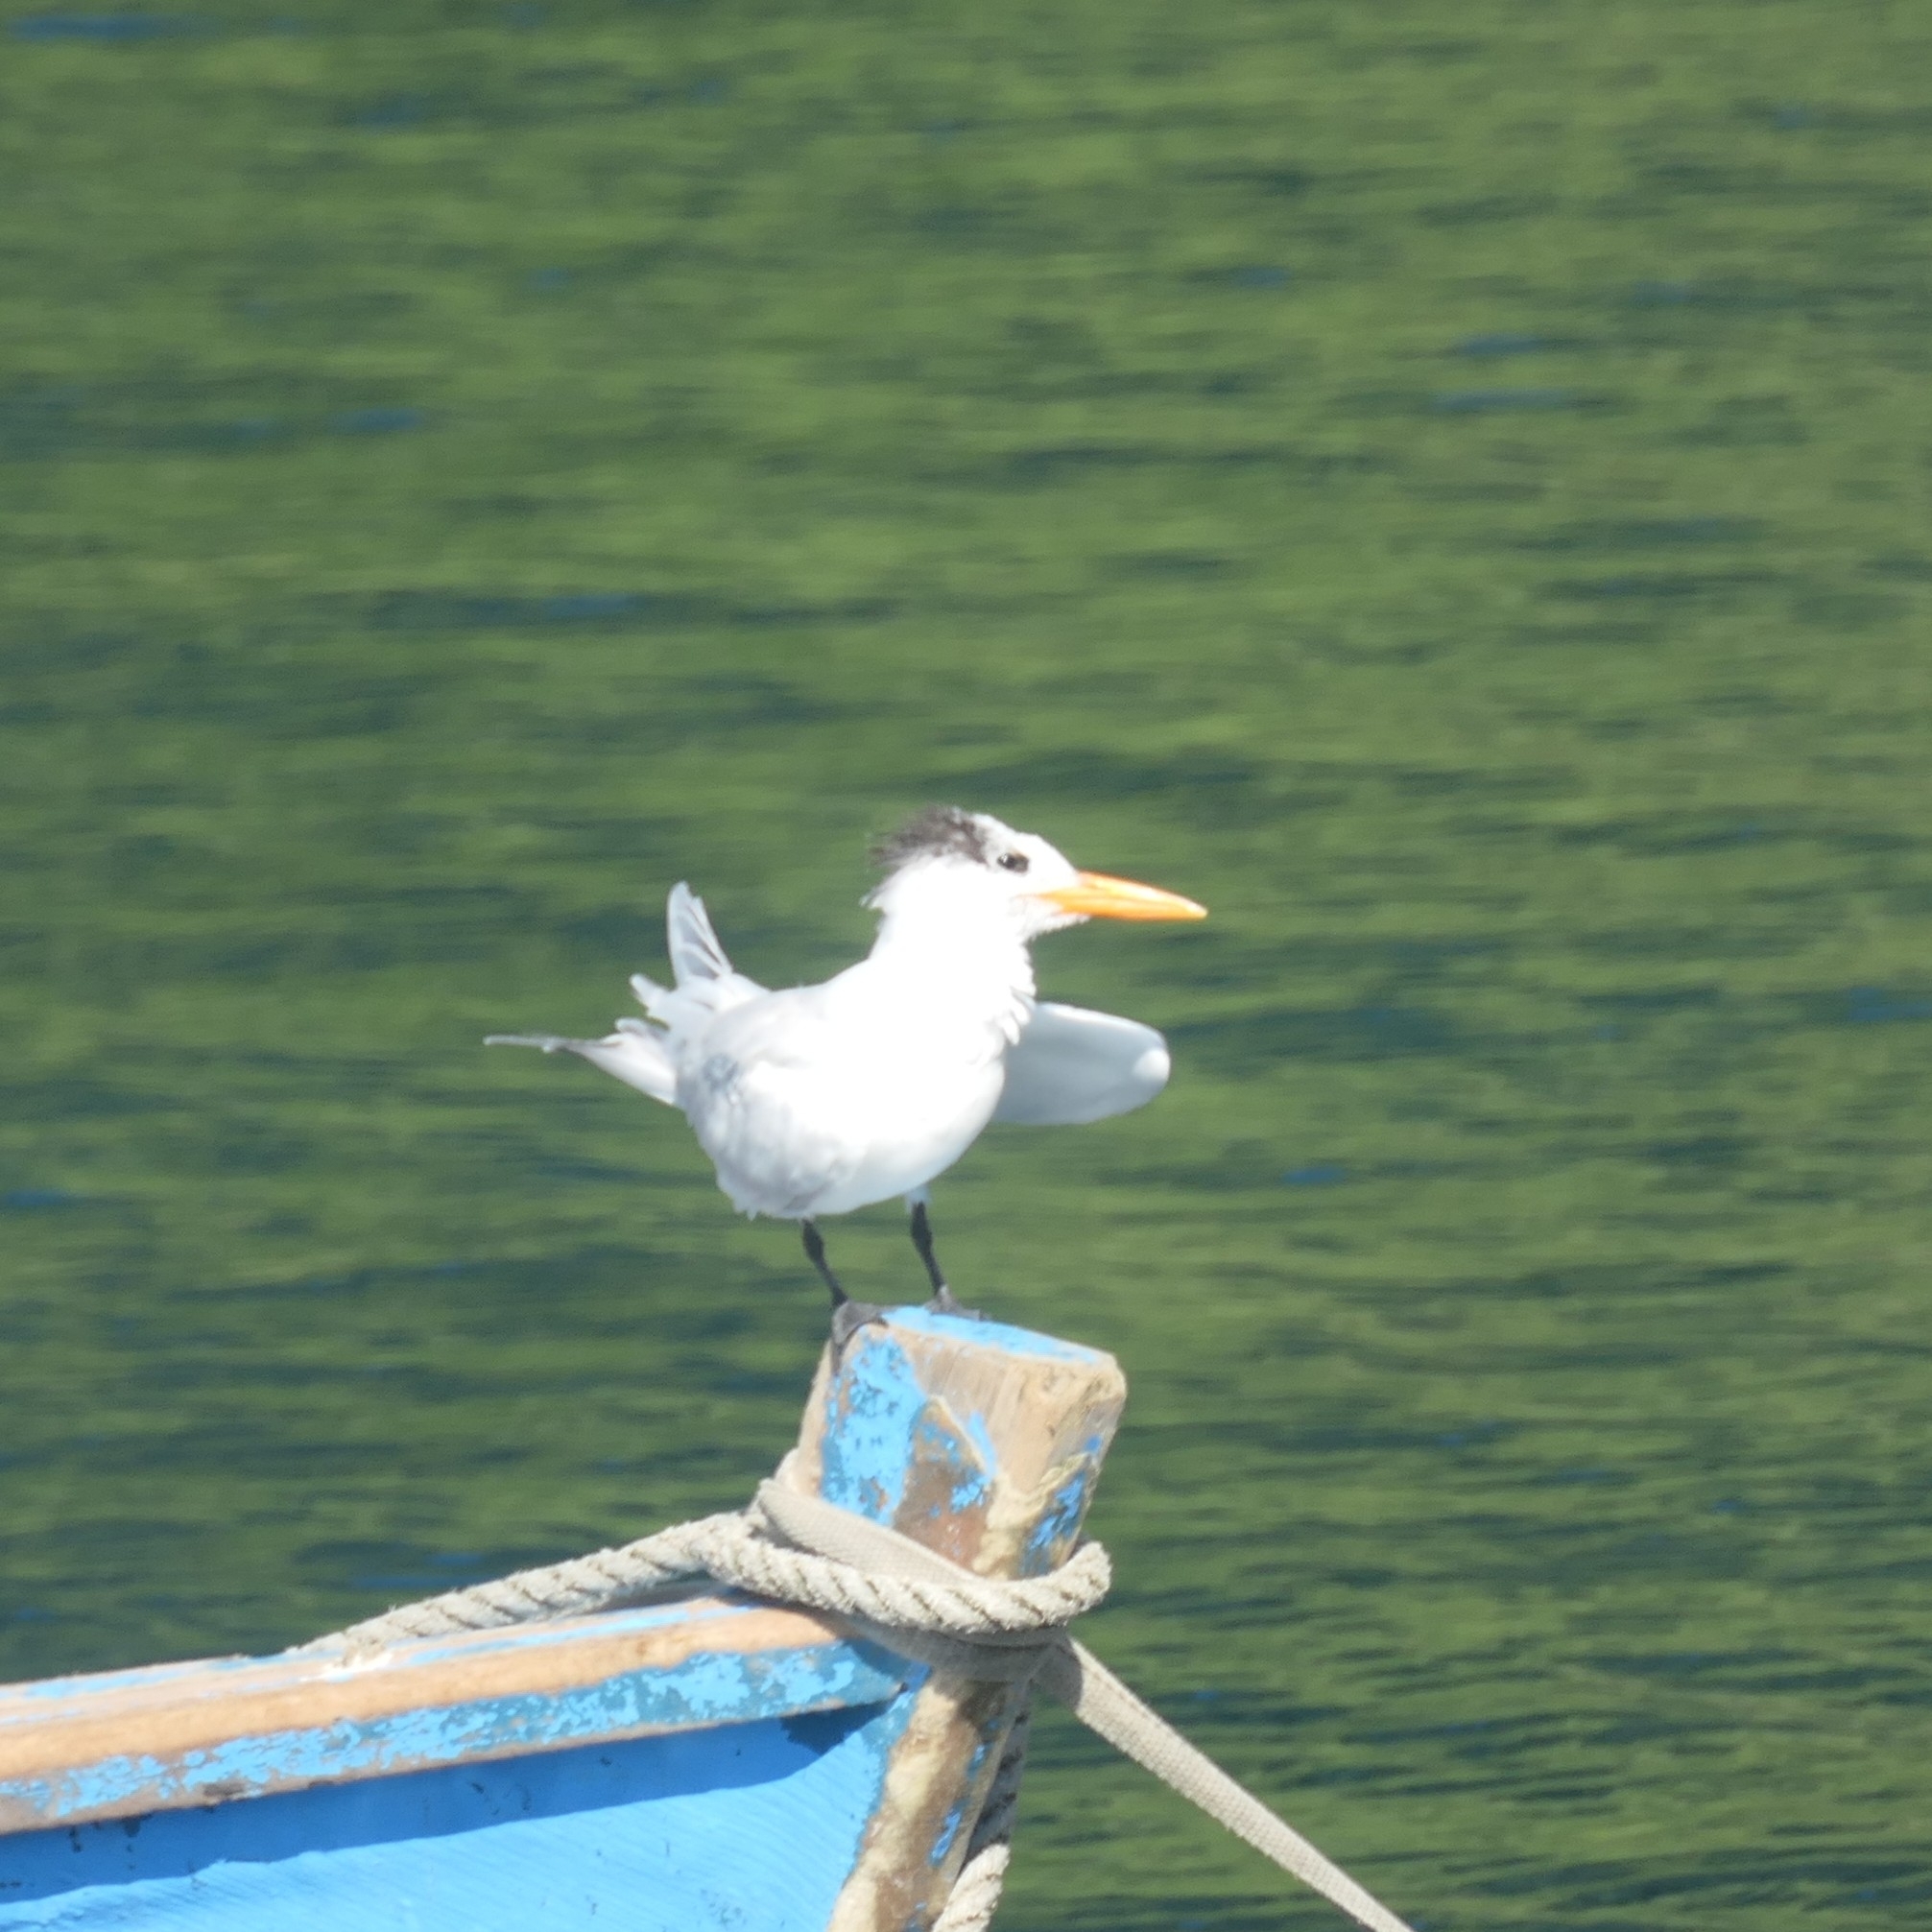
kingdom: Animalia
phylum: Chordata
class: Aves
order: Charadriiformes
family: Laridae
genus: Thalasseus
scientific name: Thalasseus maximus
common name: Royal tern
